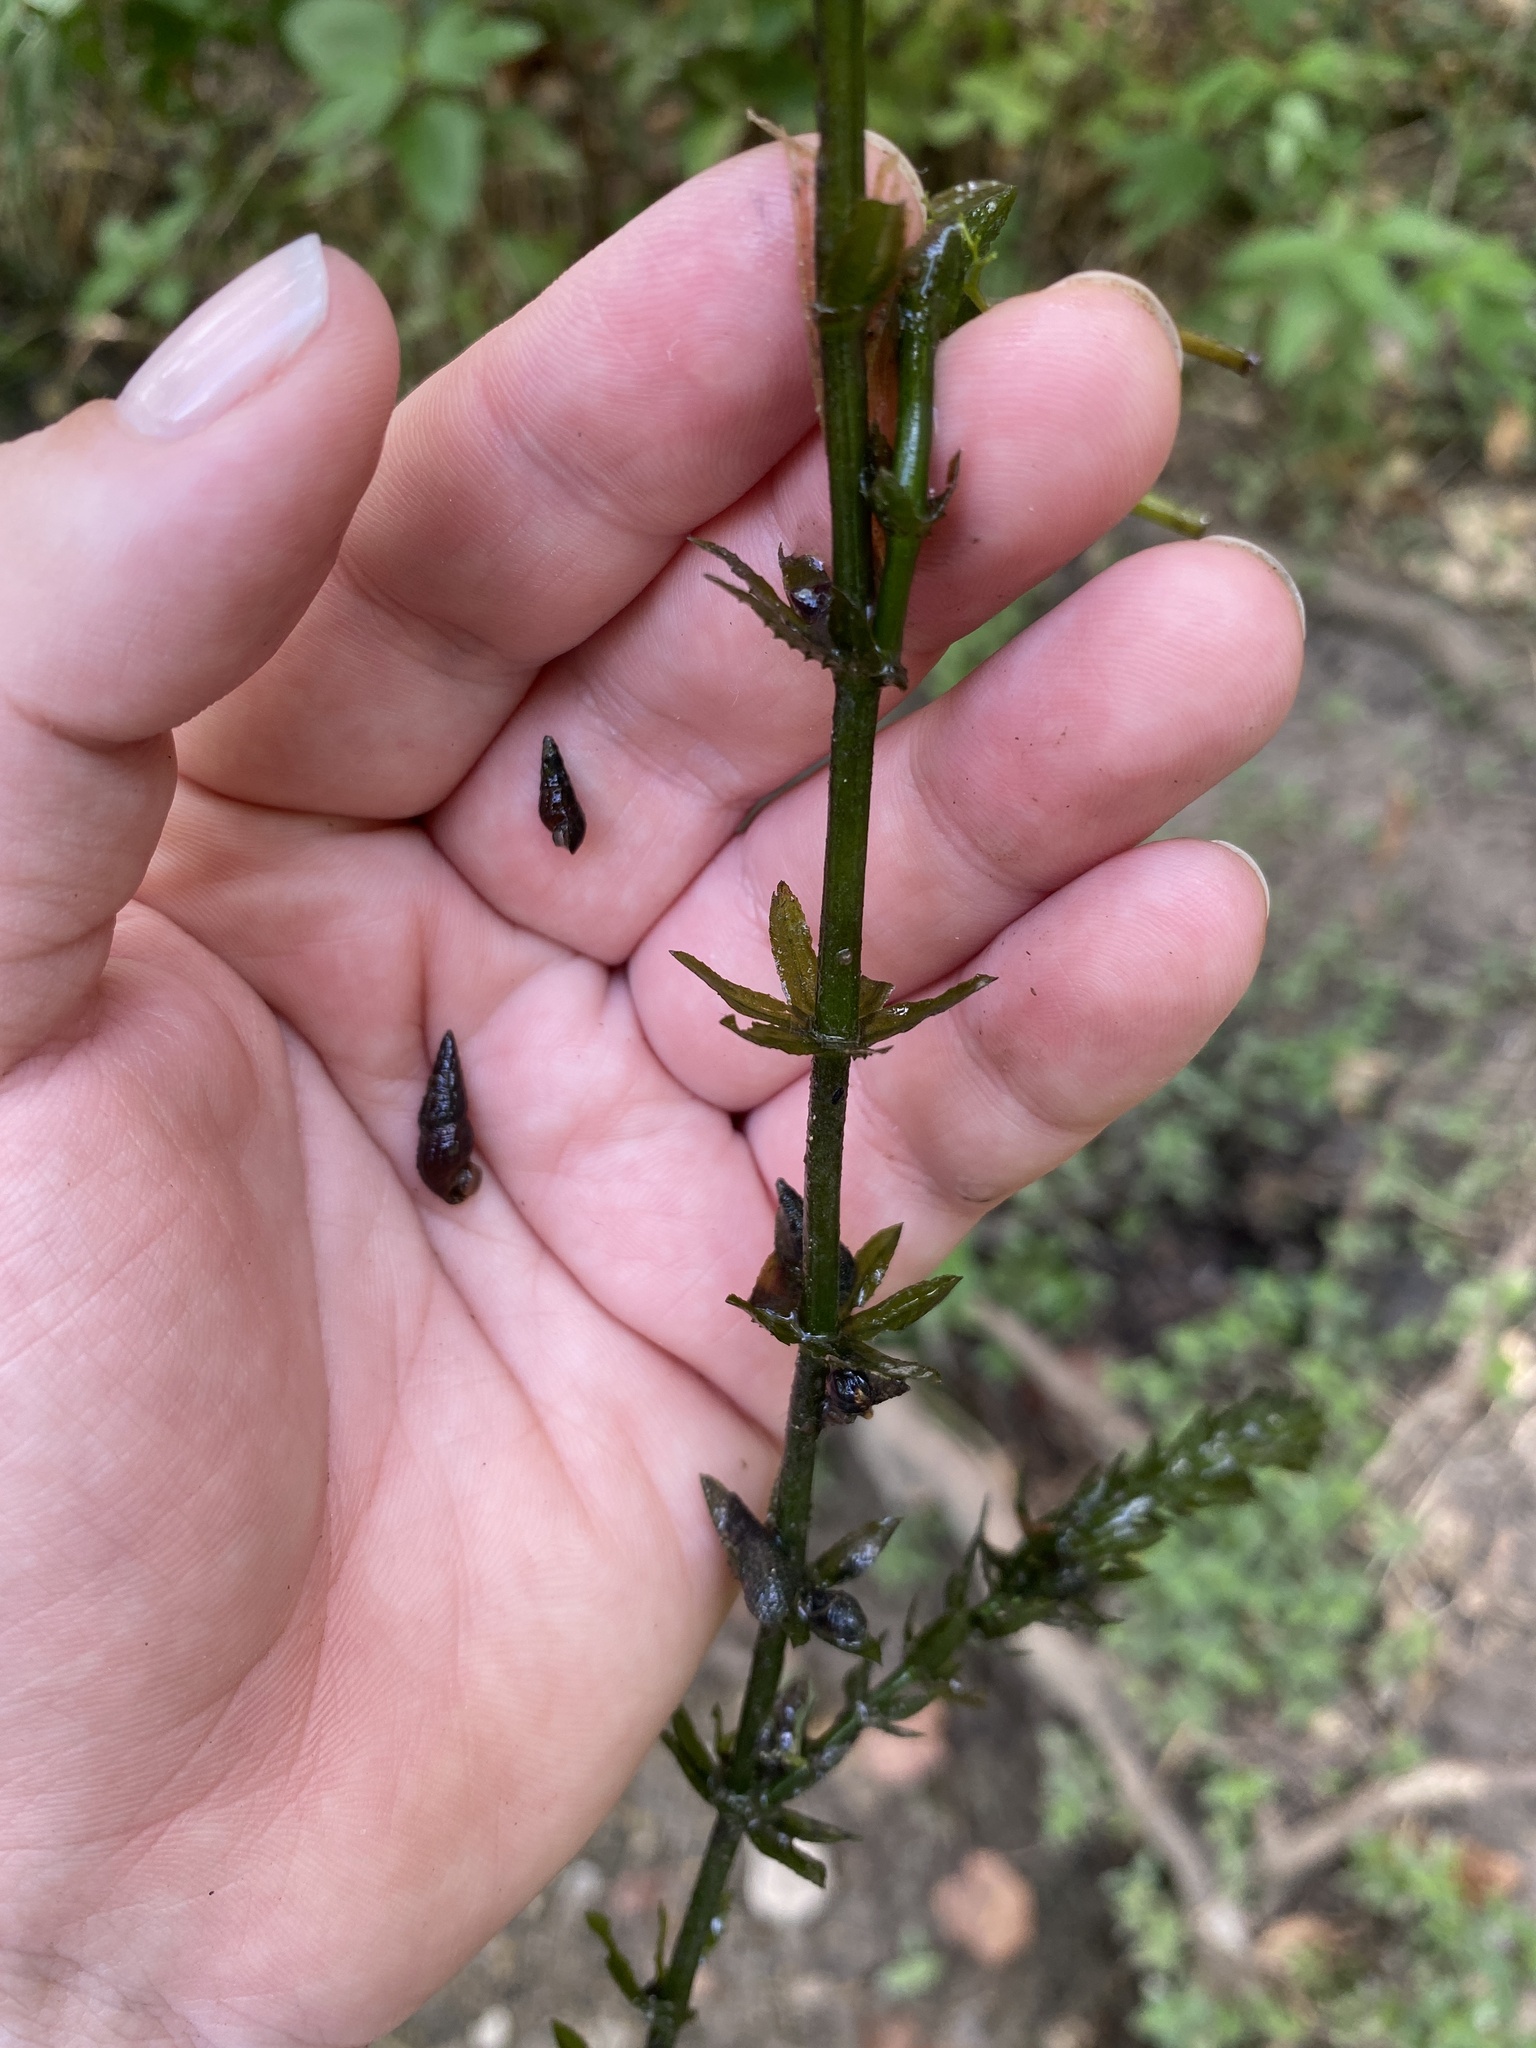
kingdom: Animalia
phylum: Mollusca
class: Gastropoda
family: Thiaridae
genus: Melanoides
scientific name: Melanoides tuberculata
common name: Red-rim melania
